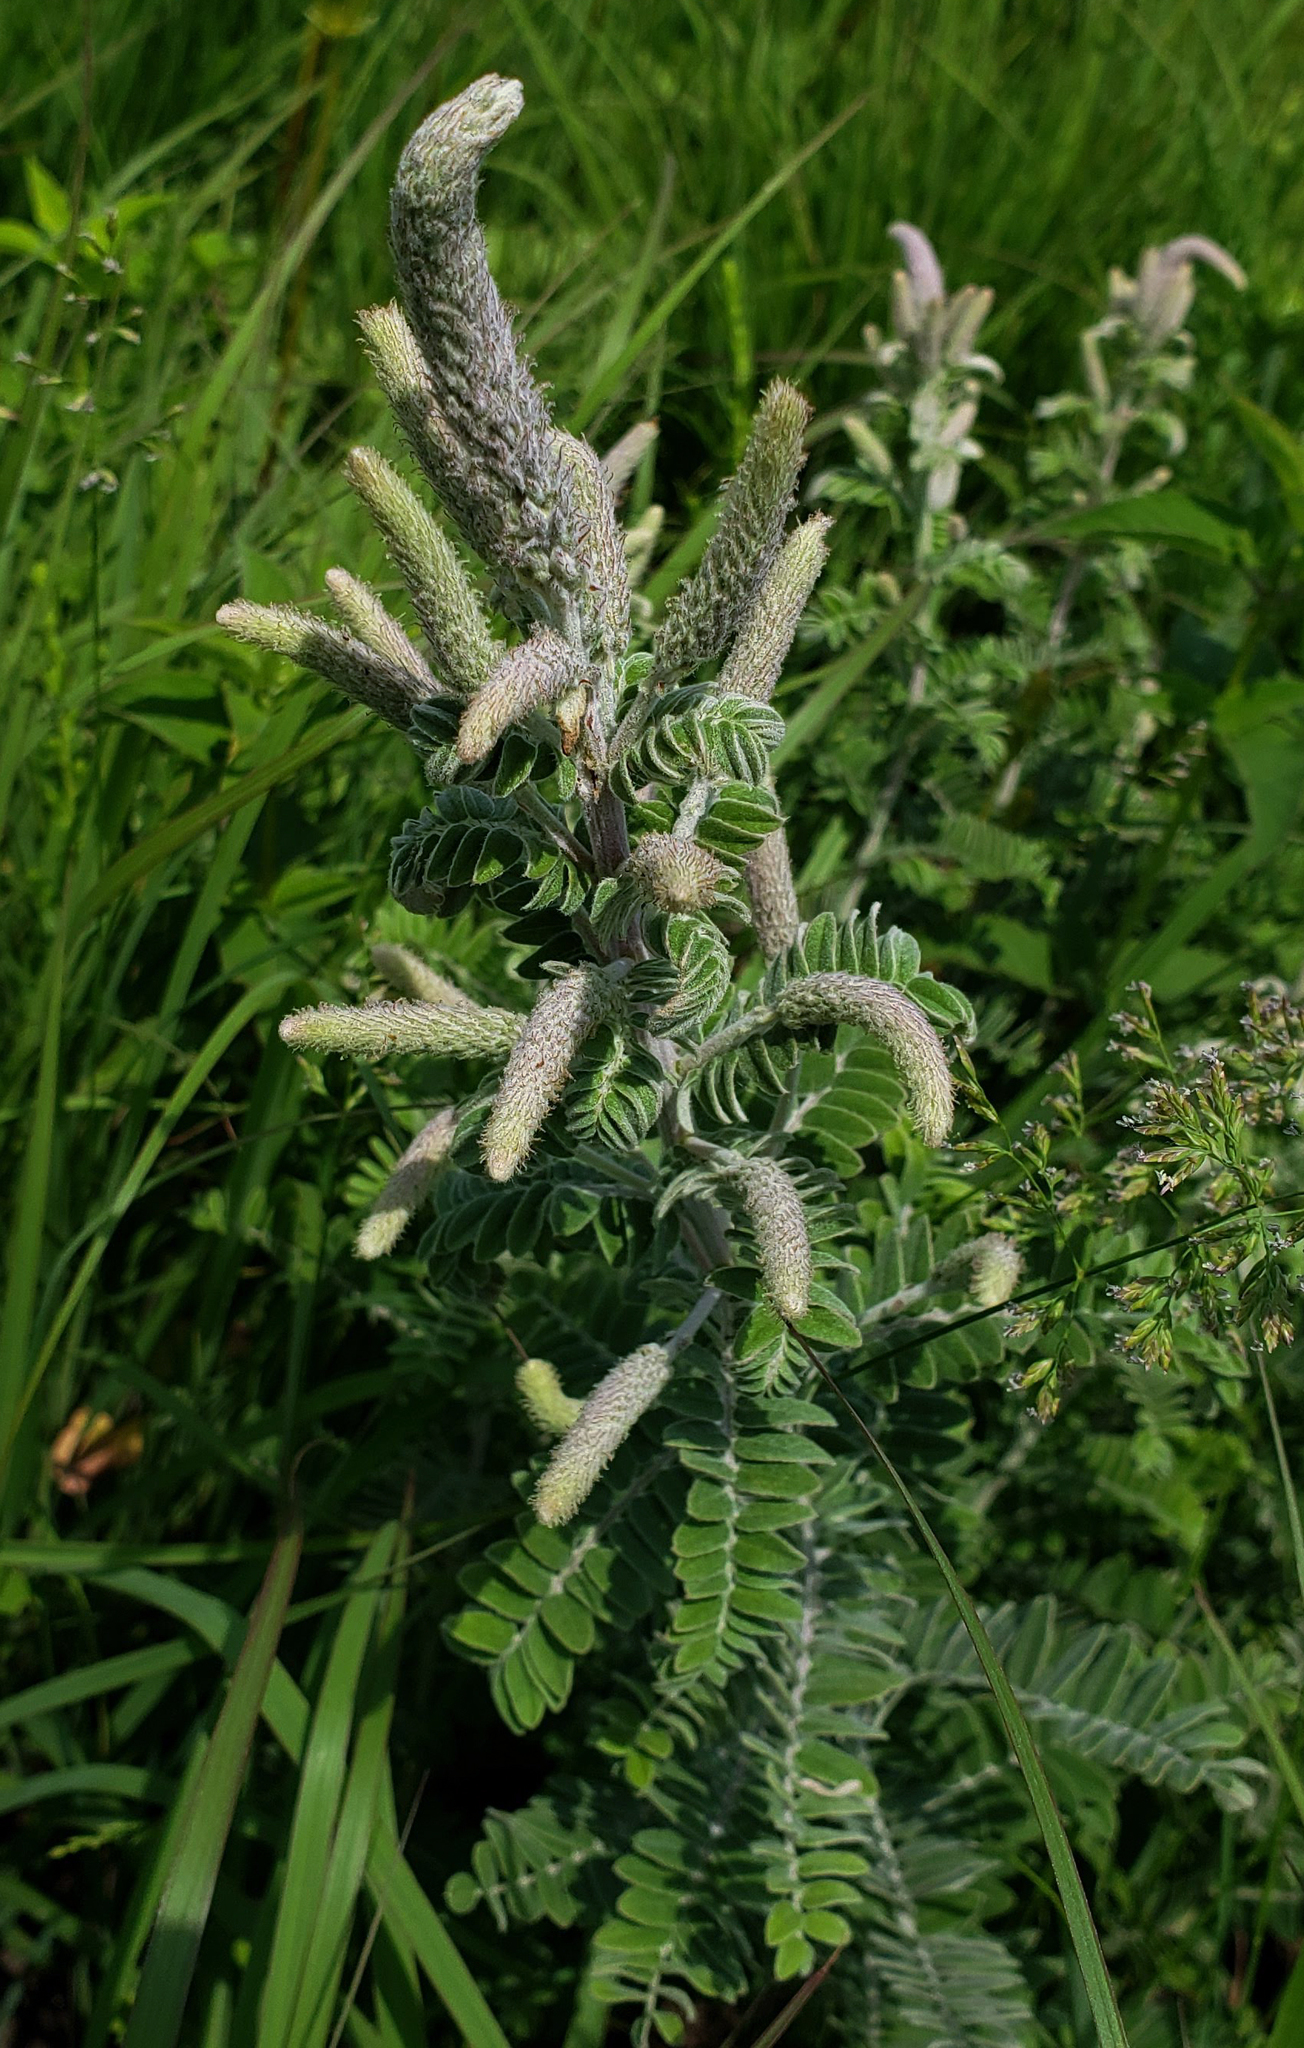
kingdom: Plantae
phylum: Tracheophyta
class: Magnoliopsida
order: Fabales
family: Fabaceae
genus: Amorpha
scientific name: Amorpha canescens
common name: Leadplant
